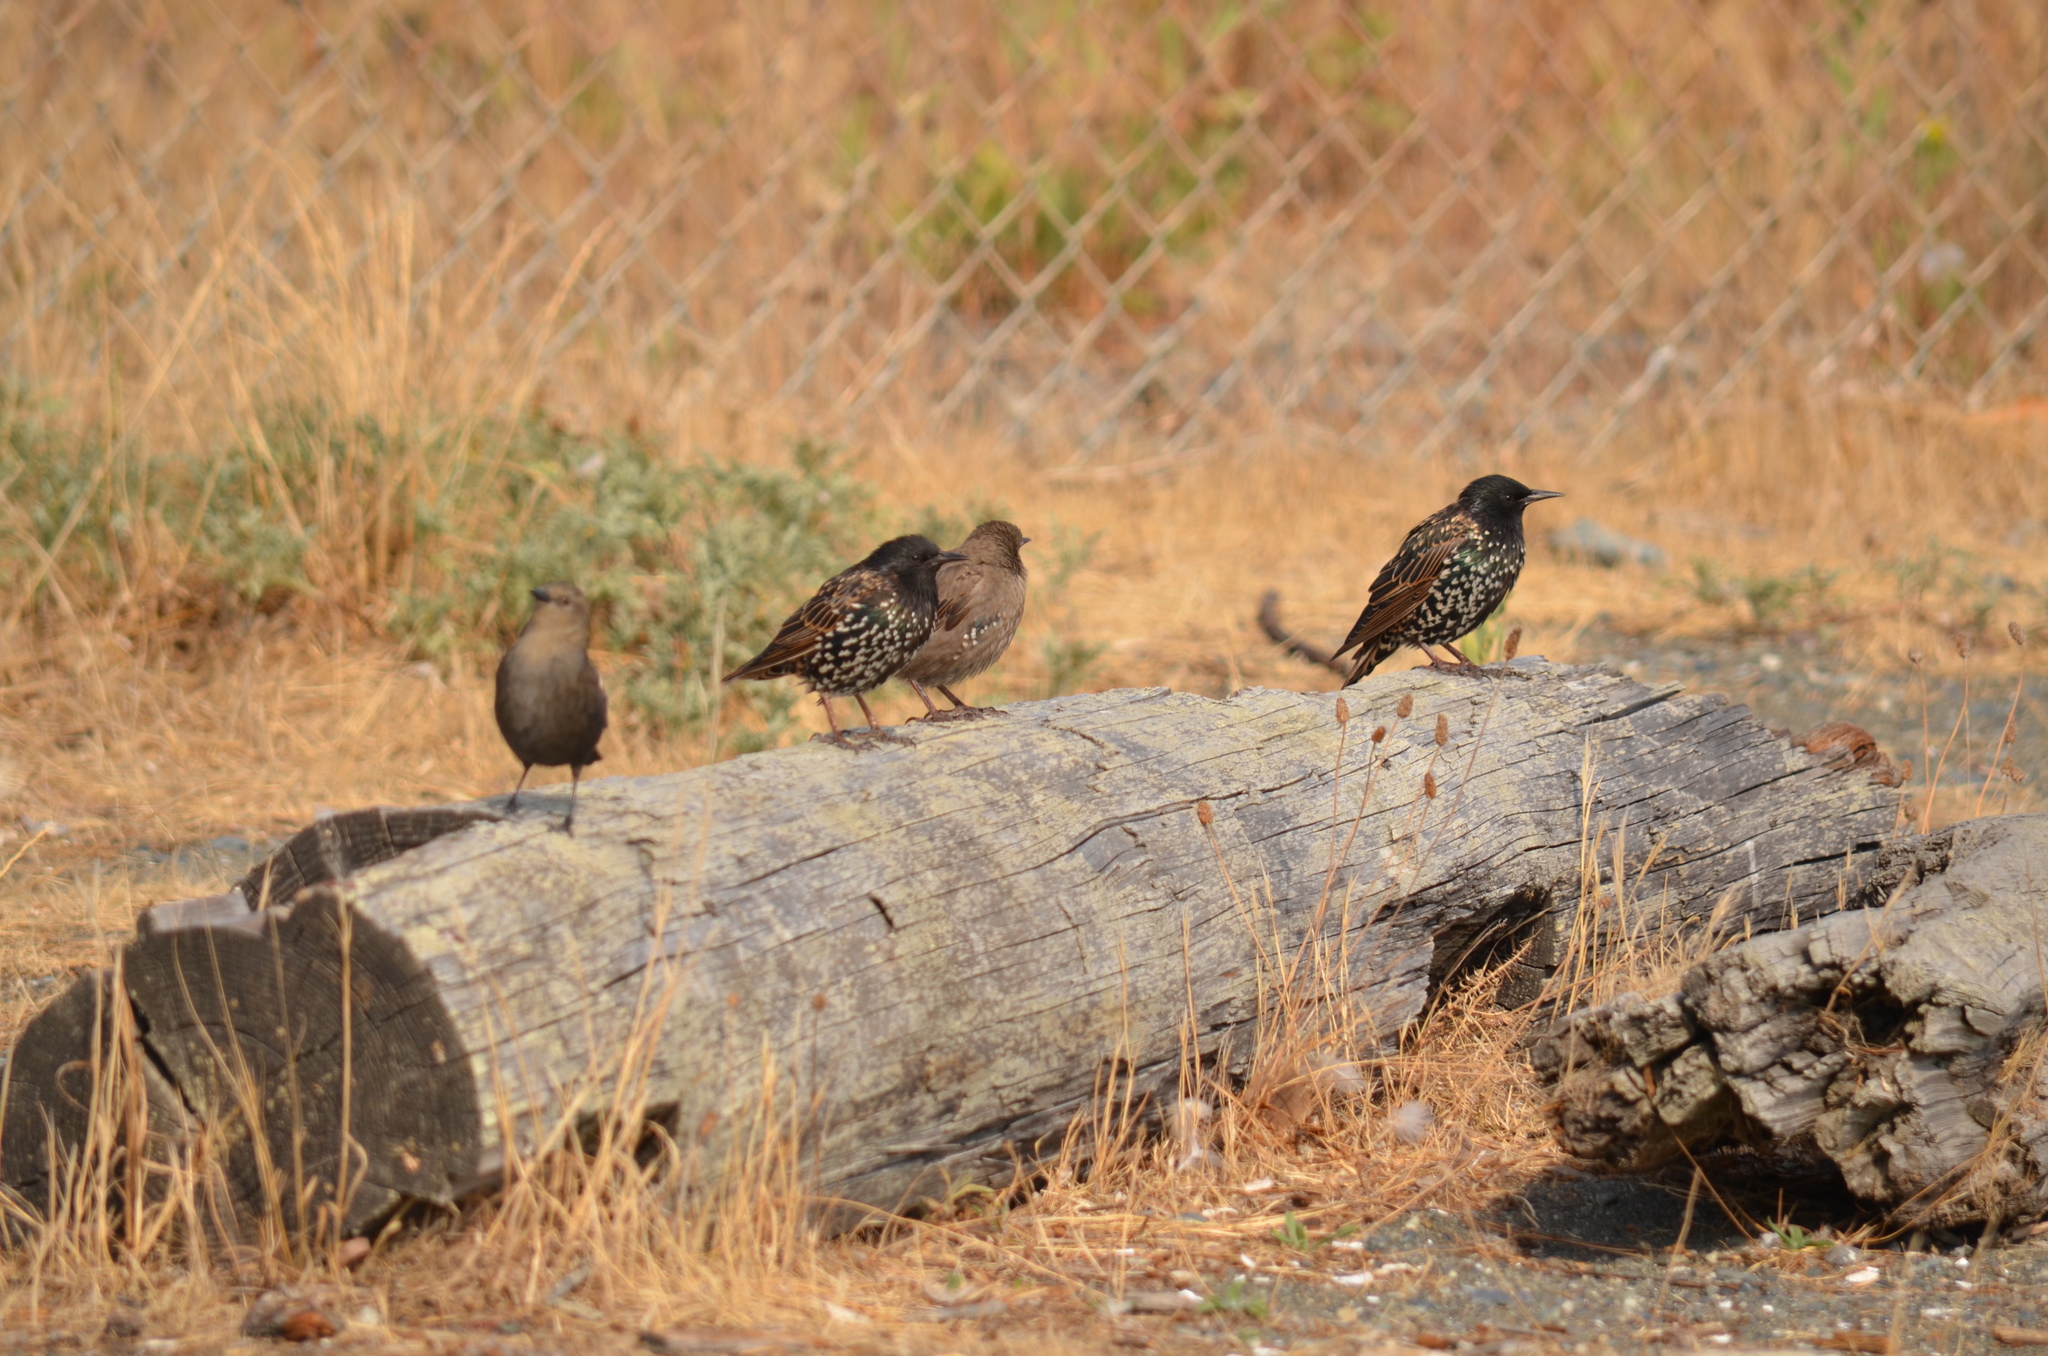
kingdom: Animalia
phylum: Chordata
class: Aves
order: Passeriformes
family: Sturnidae
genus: Sturnus
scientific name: Sturnus vulgaris
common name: Common starling
